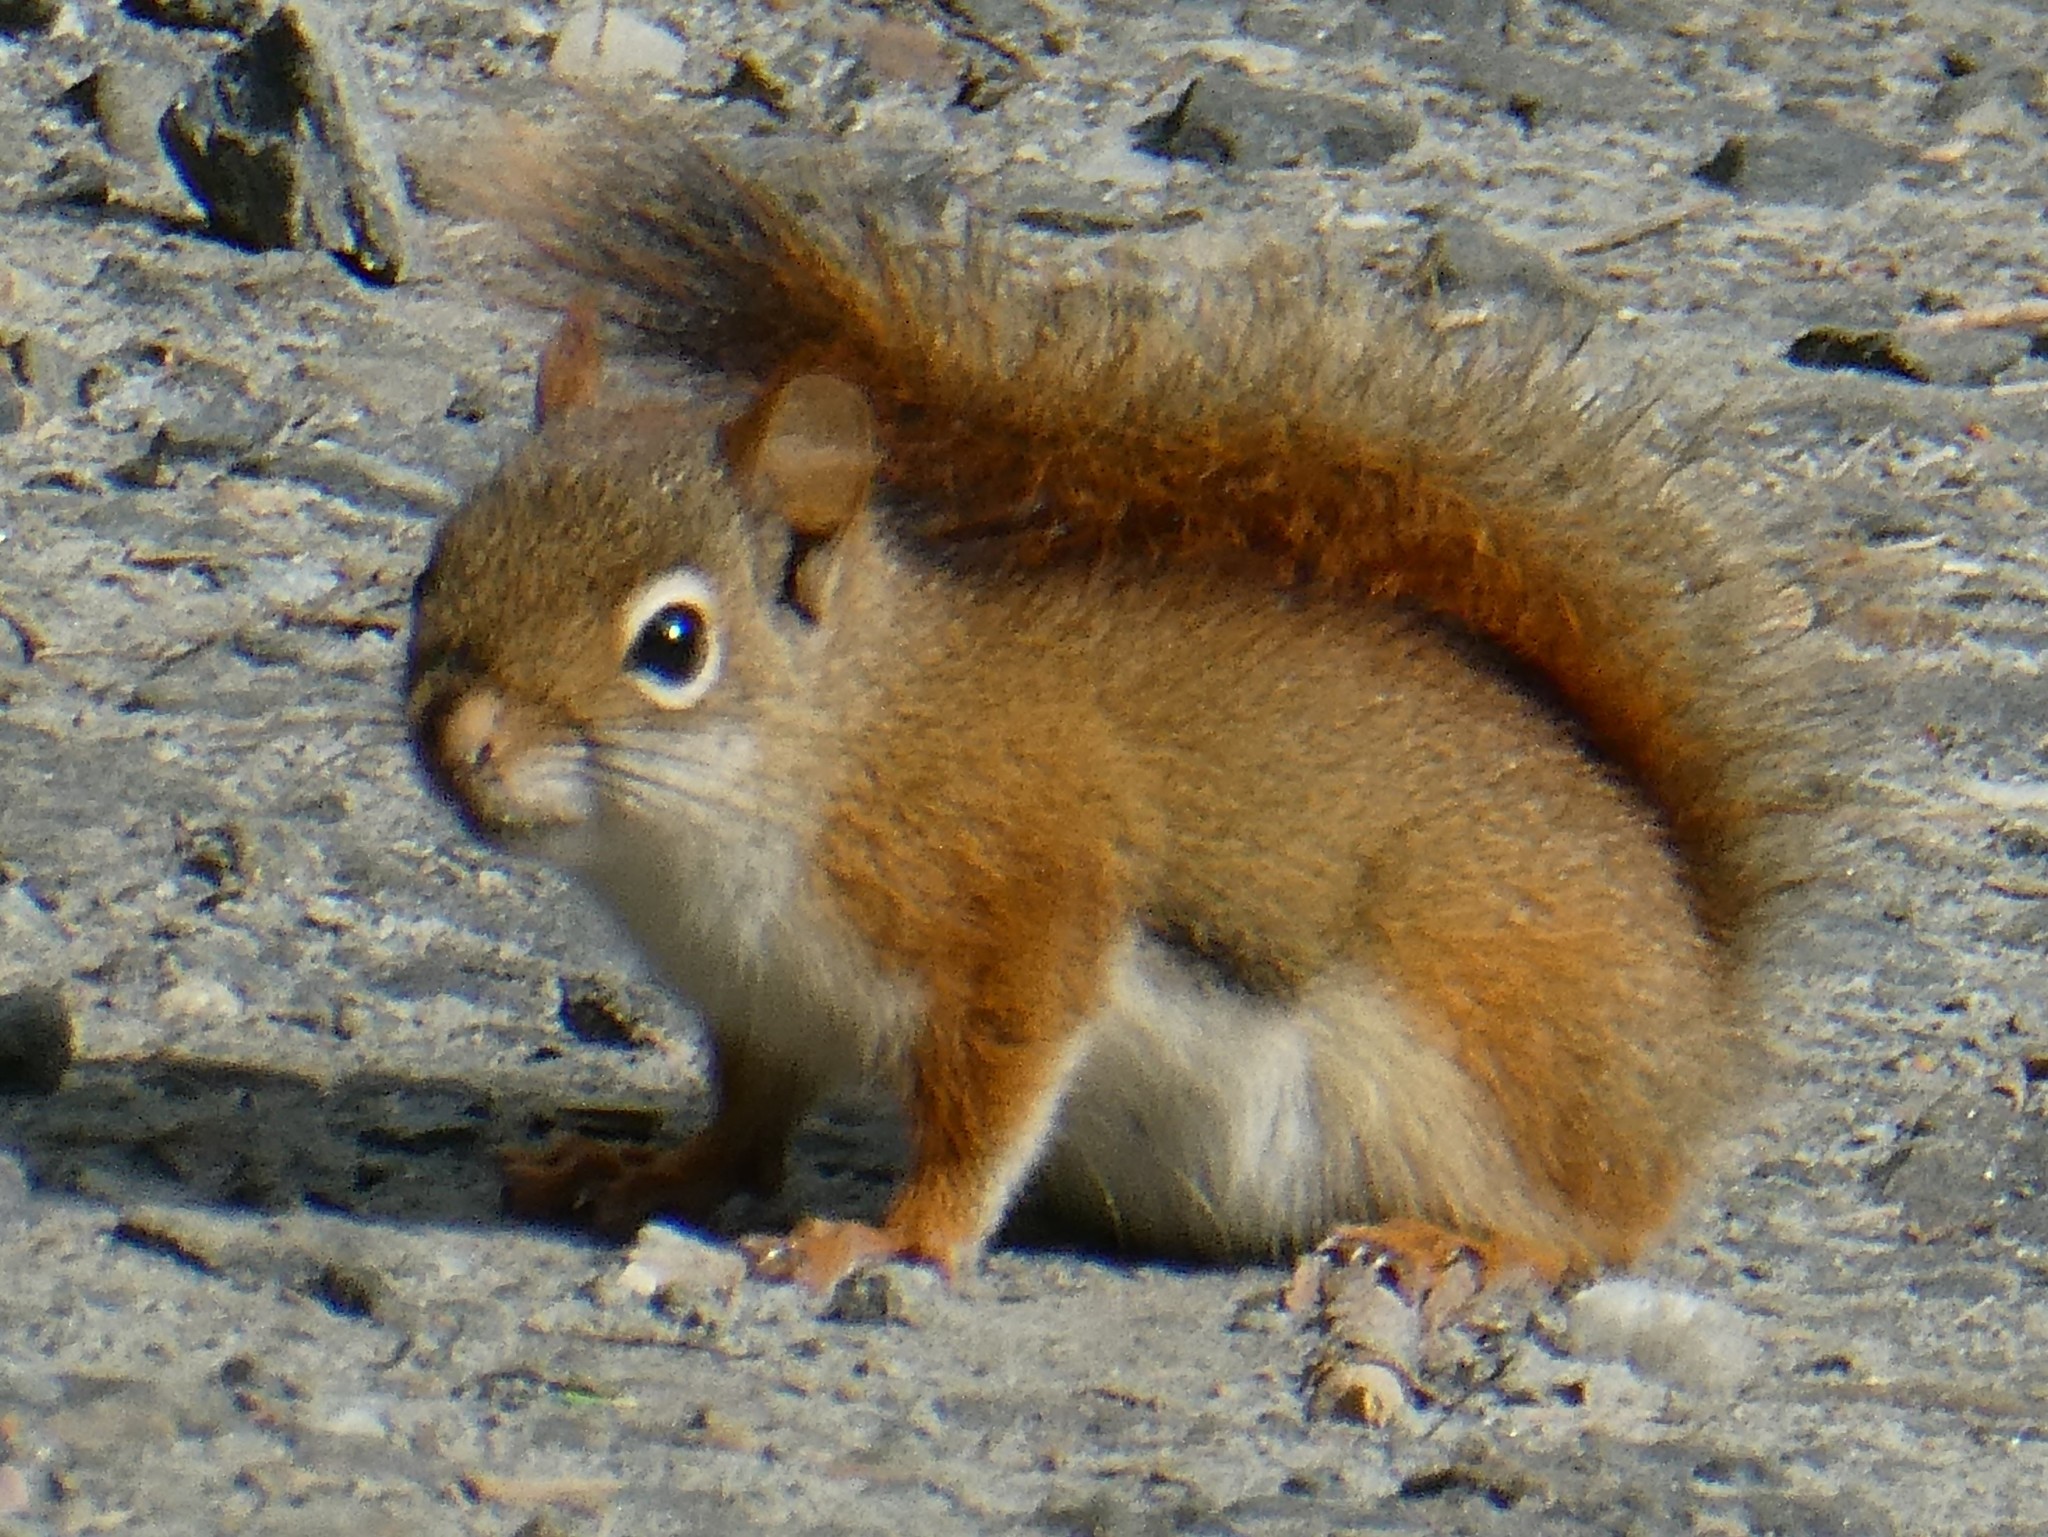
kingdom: Animalia
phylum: Chordata
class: Mammalia
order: Rodentia
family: Sciuridae
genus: Tamiasciurus
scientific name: Tamiasciurus hudsonicus
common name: Red squirrel
